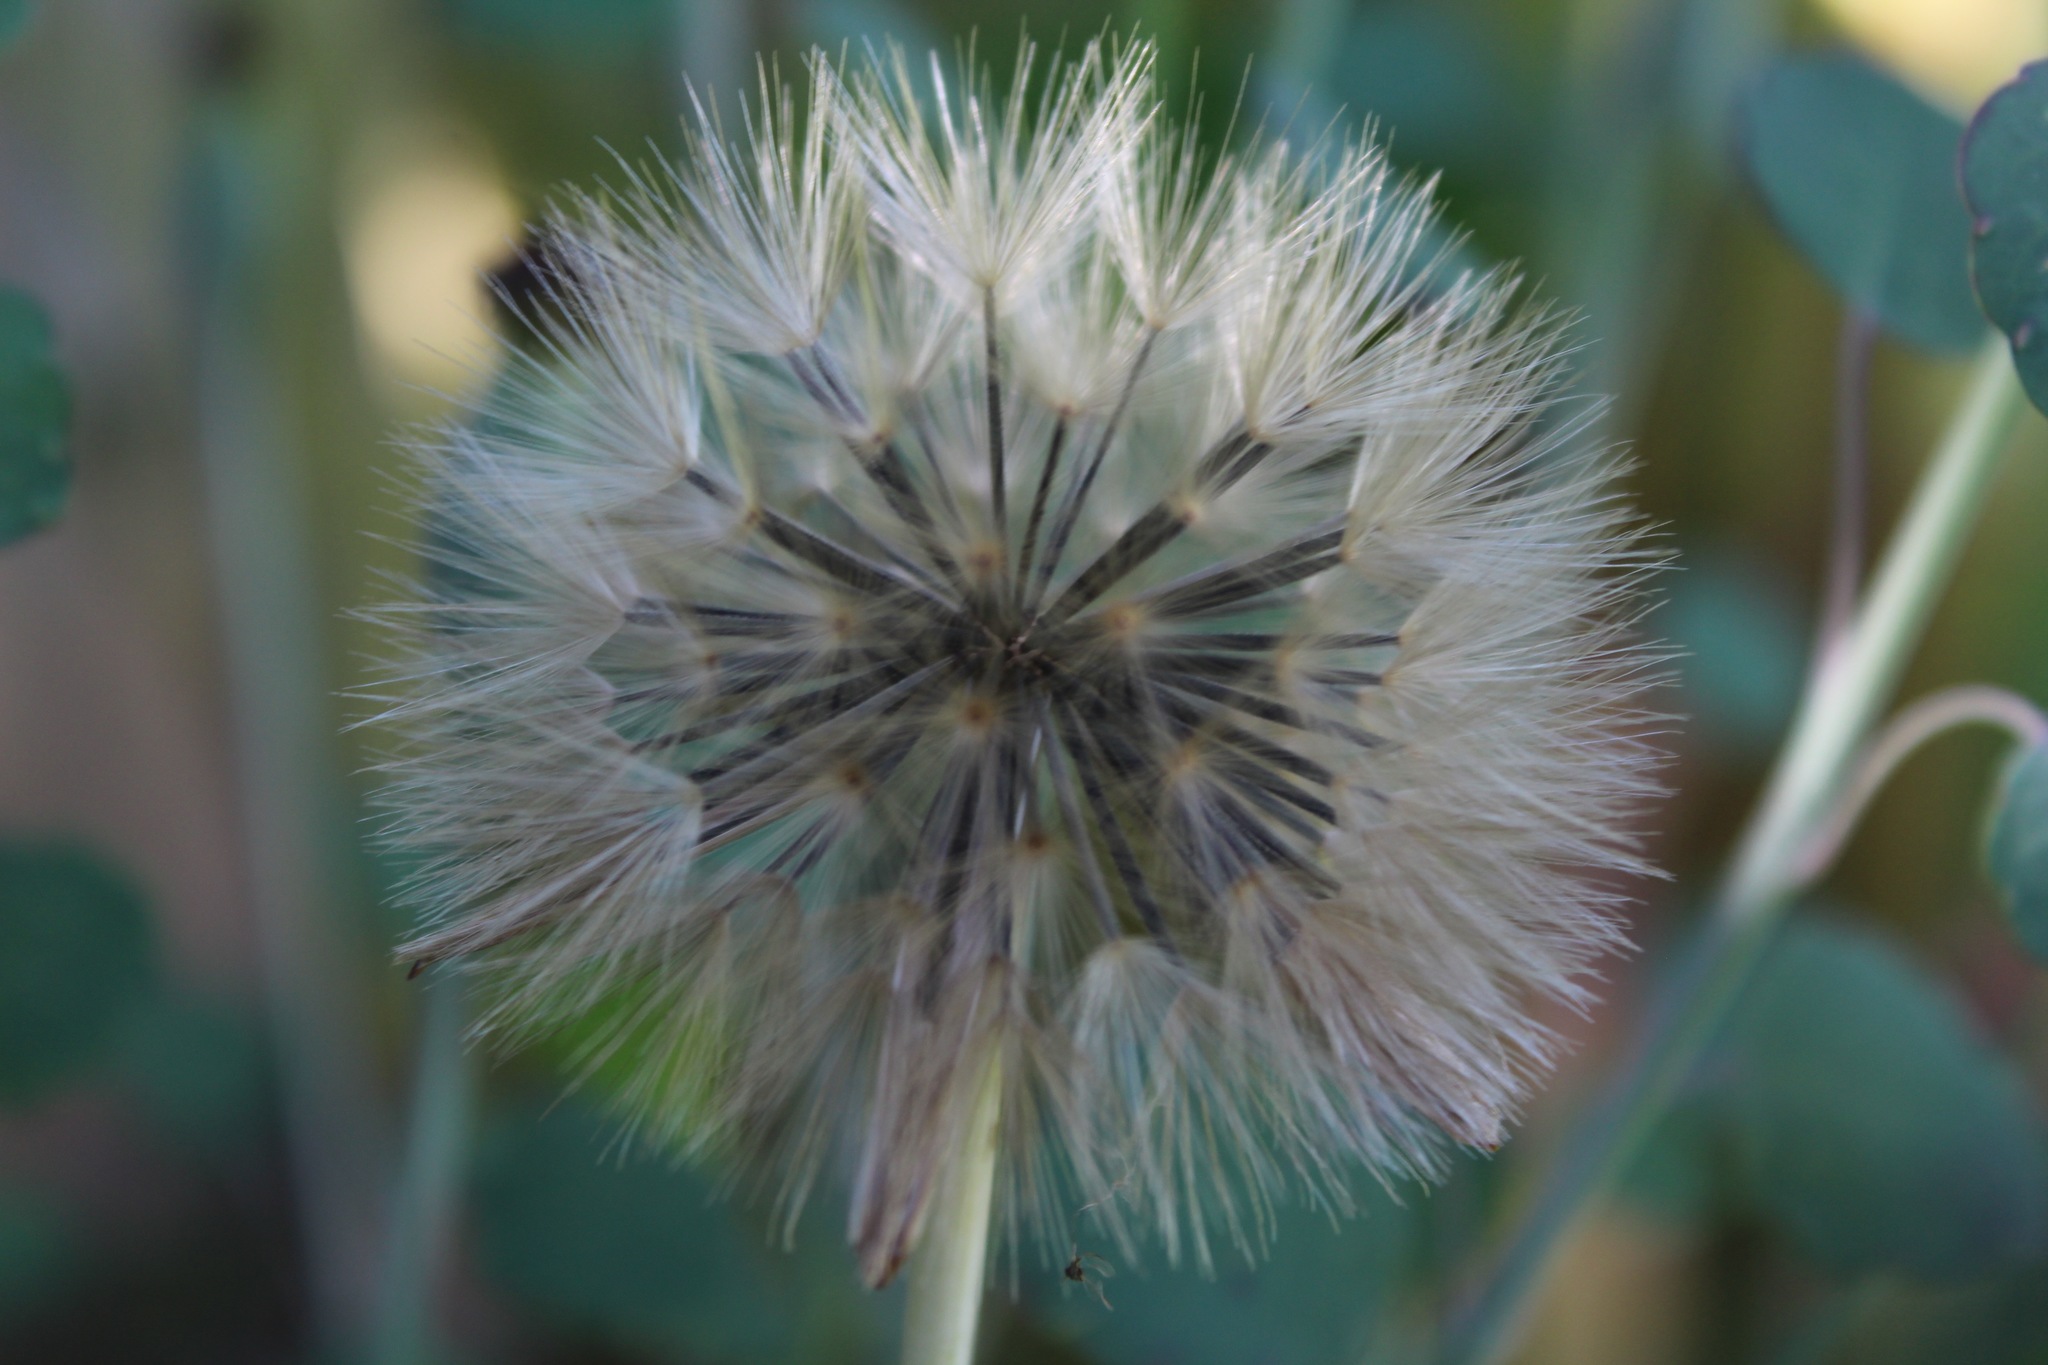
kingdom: Plantae
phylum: Tracheophyta
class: Magnoliopsida
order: Asterales
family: Asteraceae
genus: Taraxacum
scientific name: Taraxacum officinale
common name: Common dandelion
